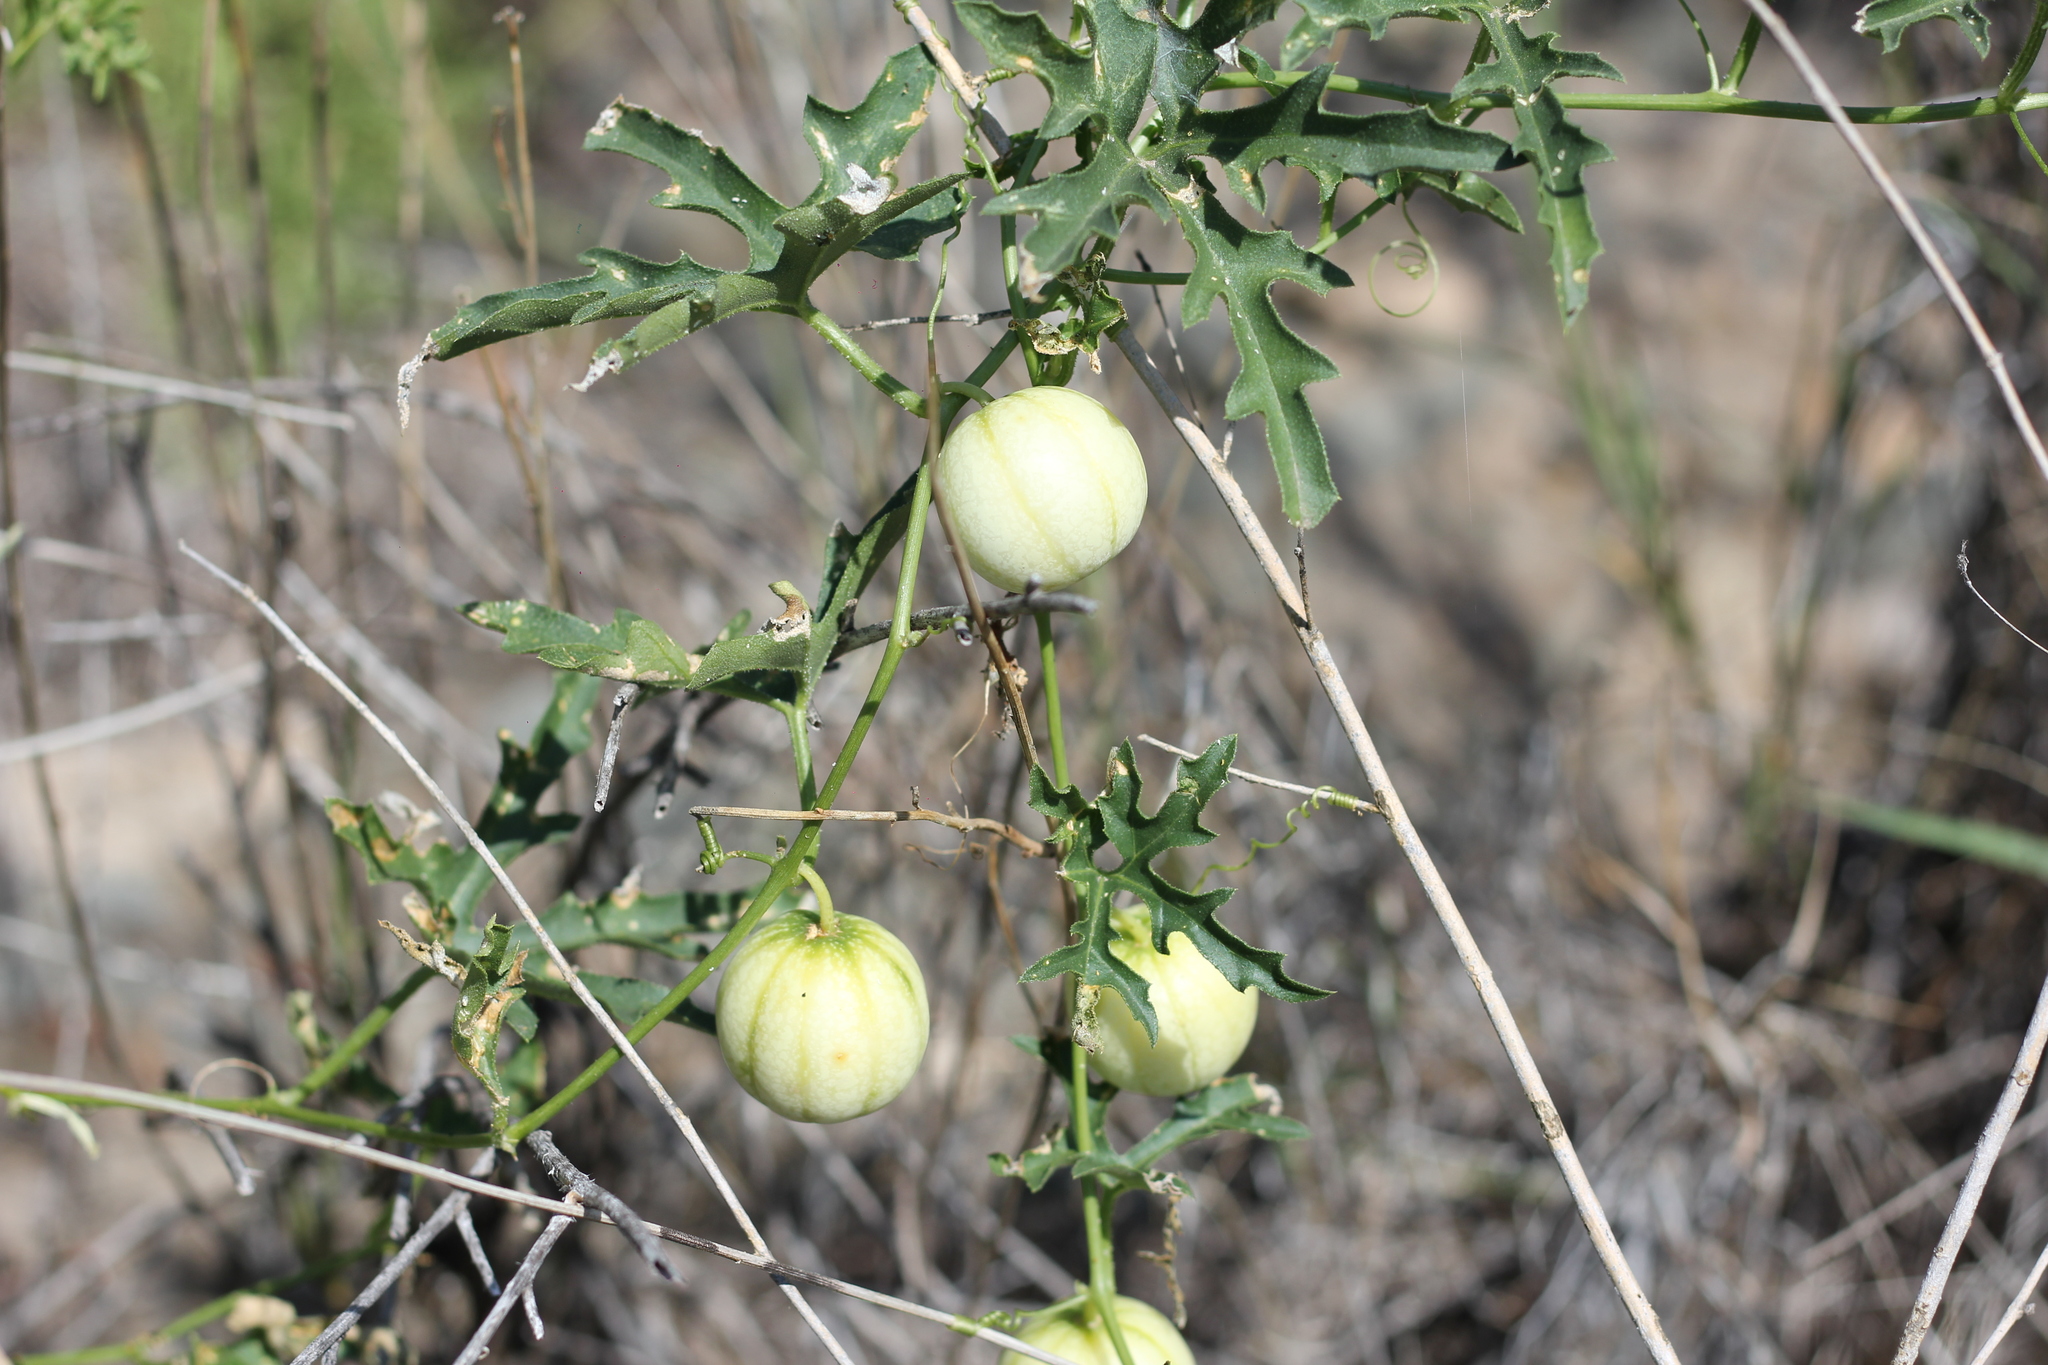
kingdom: Plantae
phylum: Tracheophyta
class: Magnoliopsida
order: Cucurbitales
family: Cucurbitaceae
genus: Cucurbitella
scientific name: Cucurbitella asperata
